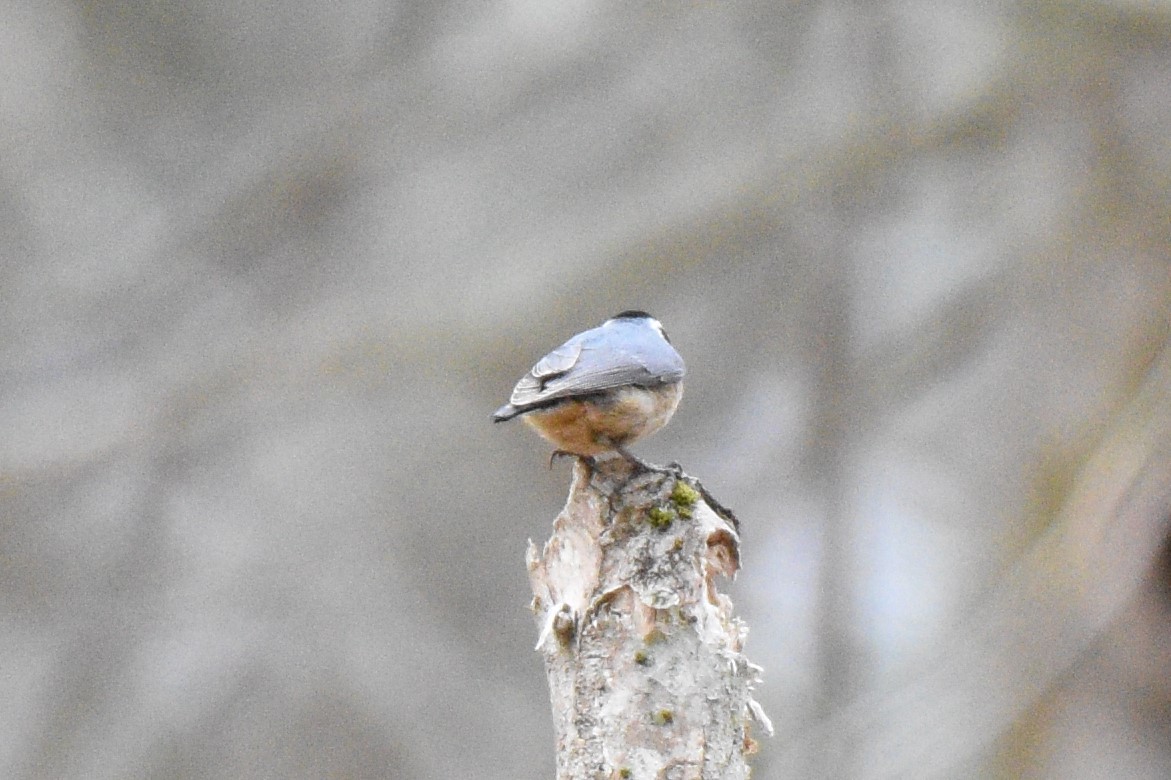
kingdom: Animalia
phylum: Chordata
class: Aves
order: Passeriformes
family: Sittidae
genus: Sitta
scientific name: Sitta canadensis
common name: Red-breasted nuthatch
